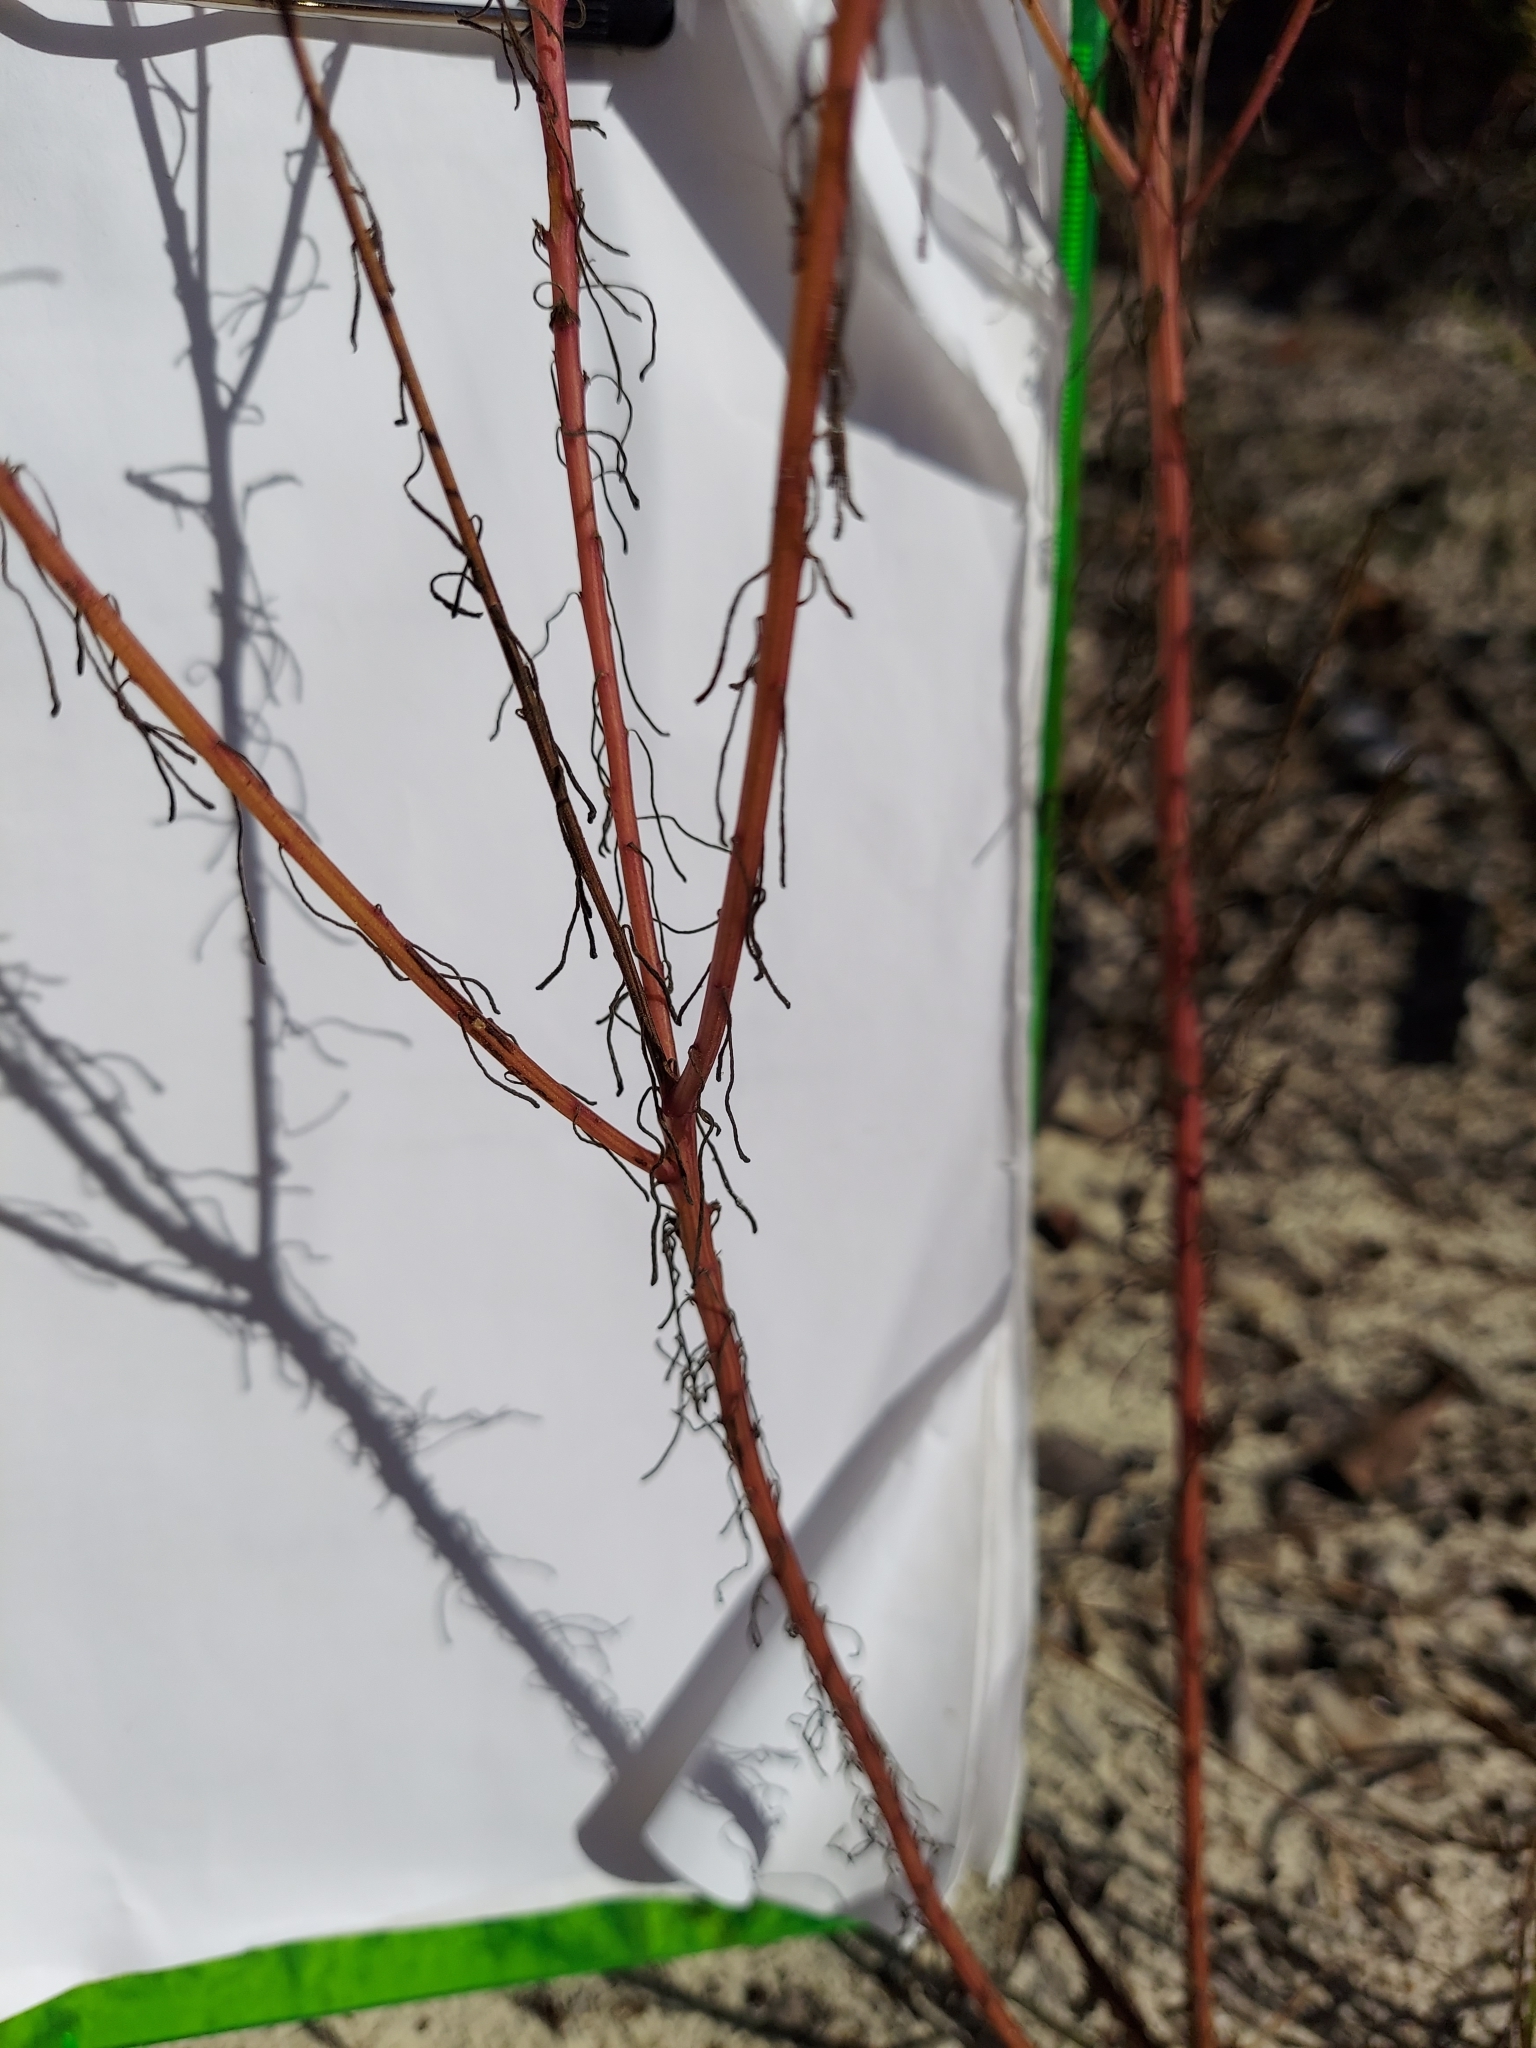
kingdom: Plantae
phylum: Tracheophyta
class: Magnoliopsida
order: Asterales
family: Asteraceae
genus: Balduina
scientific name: Balduina angustifolia
